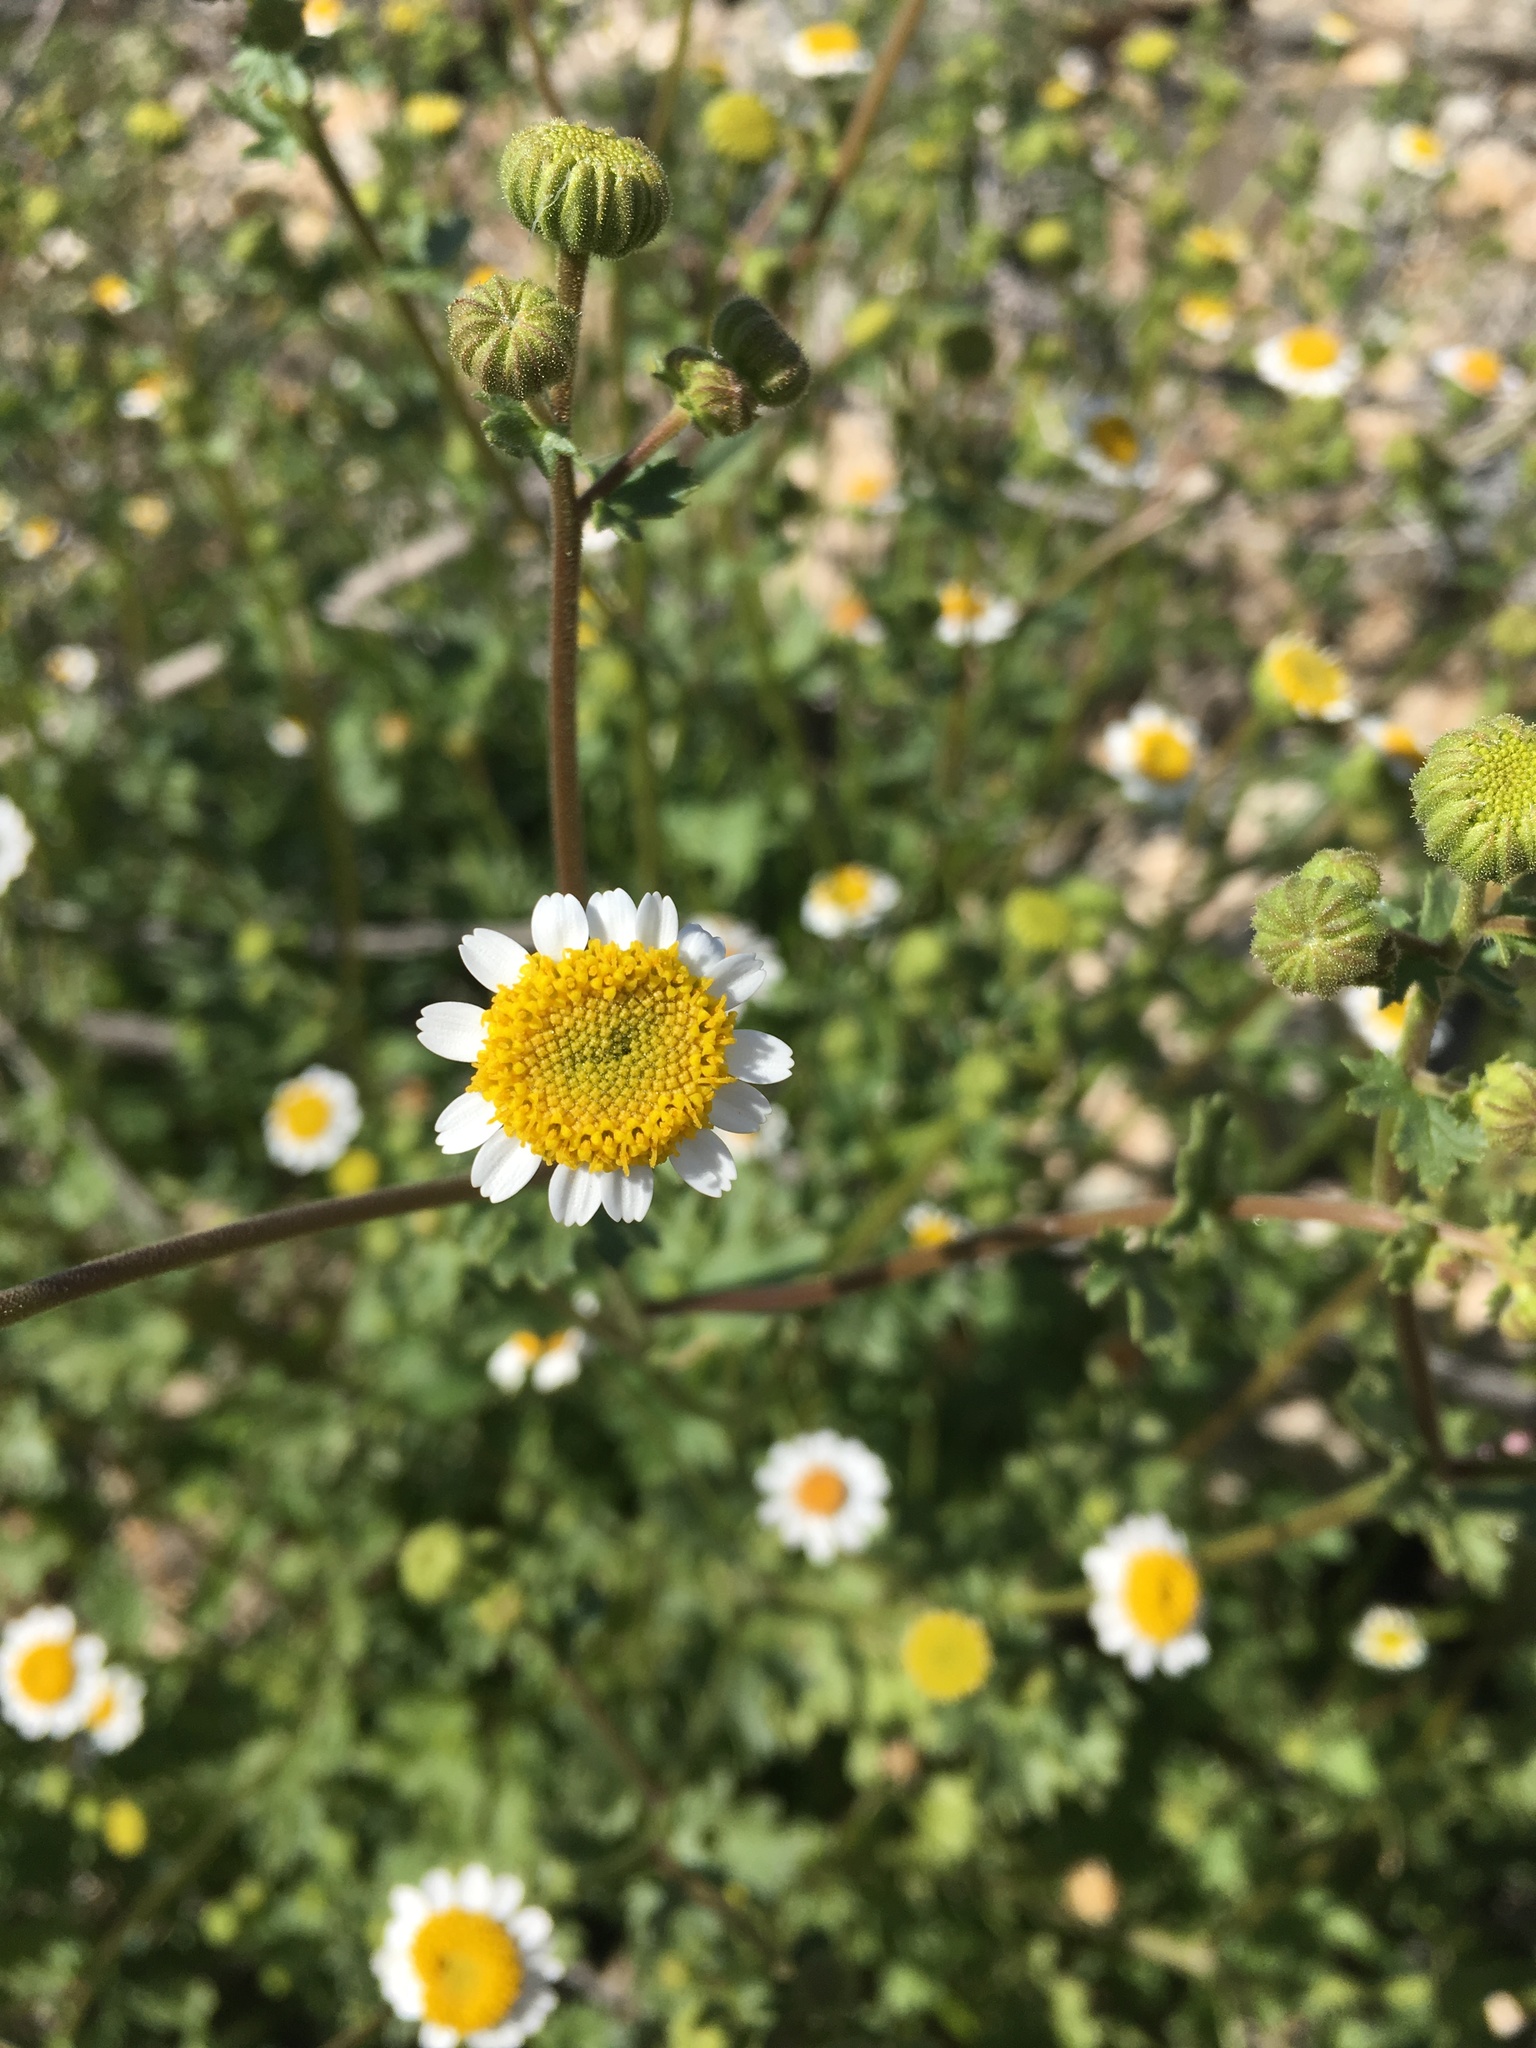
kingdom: Plantae
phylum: Tracheophyta
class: Magnoliopsida
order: Asterales
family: Asteraceae
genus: Laphamia
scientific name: Laphamia emoryi
